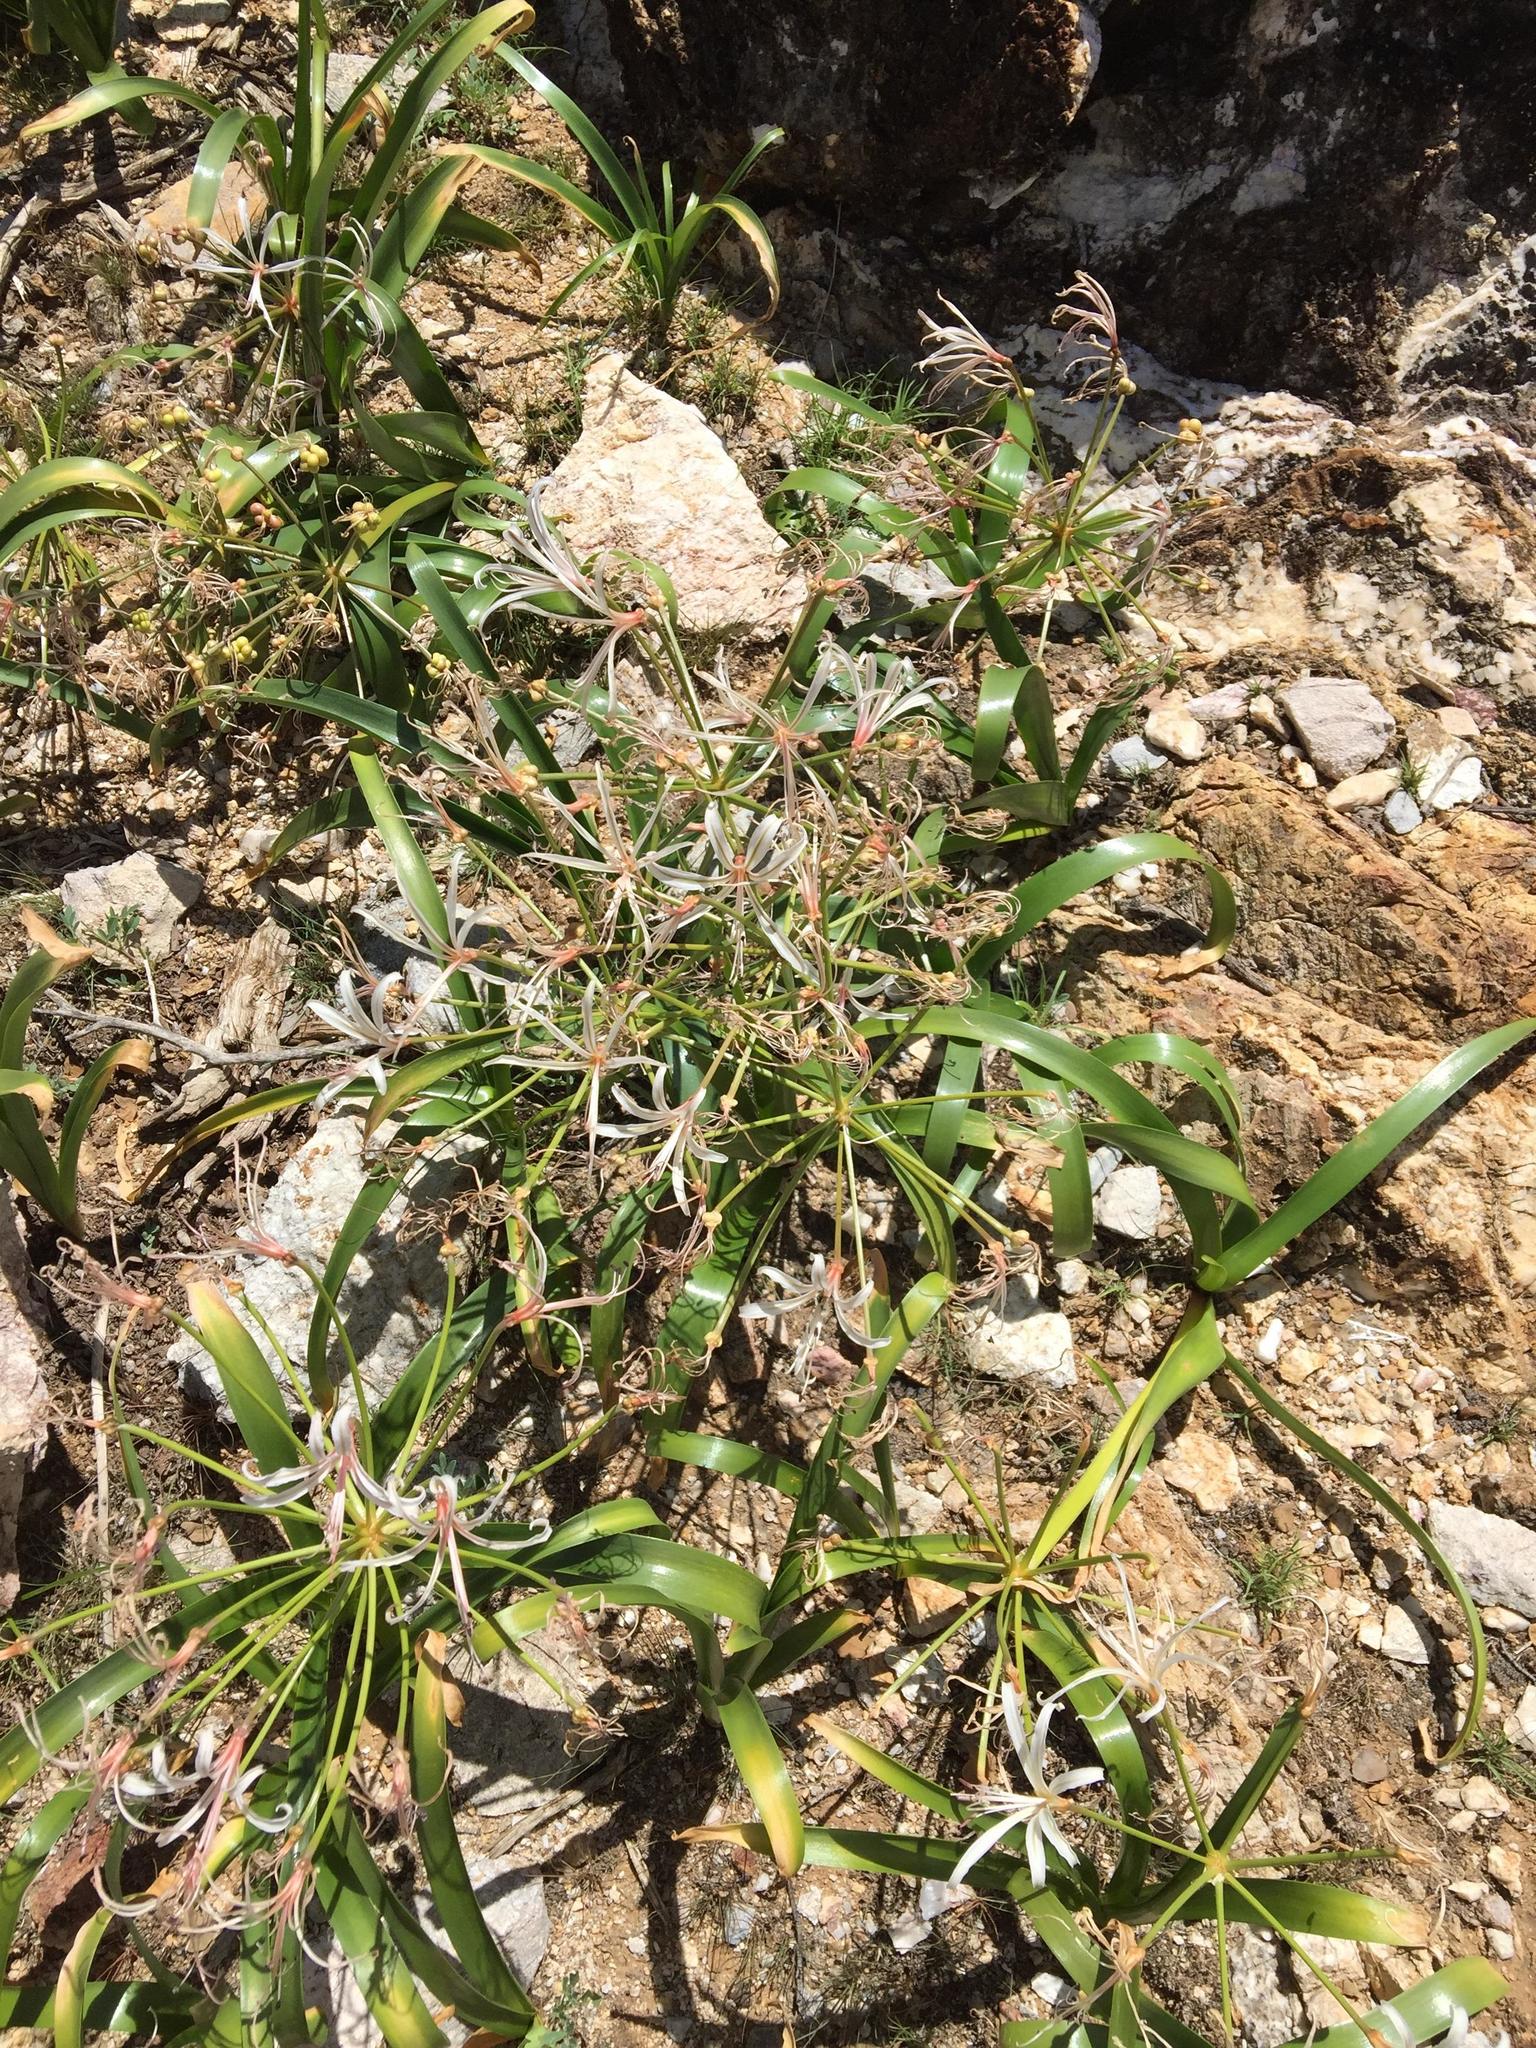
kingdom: Plantae
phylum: Tracheophyta
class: Liliopsida
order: Asparagales
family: Amaryllidaceae
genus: Nerine
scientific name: Nerine laticoma
